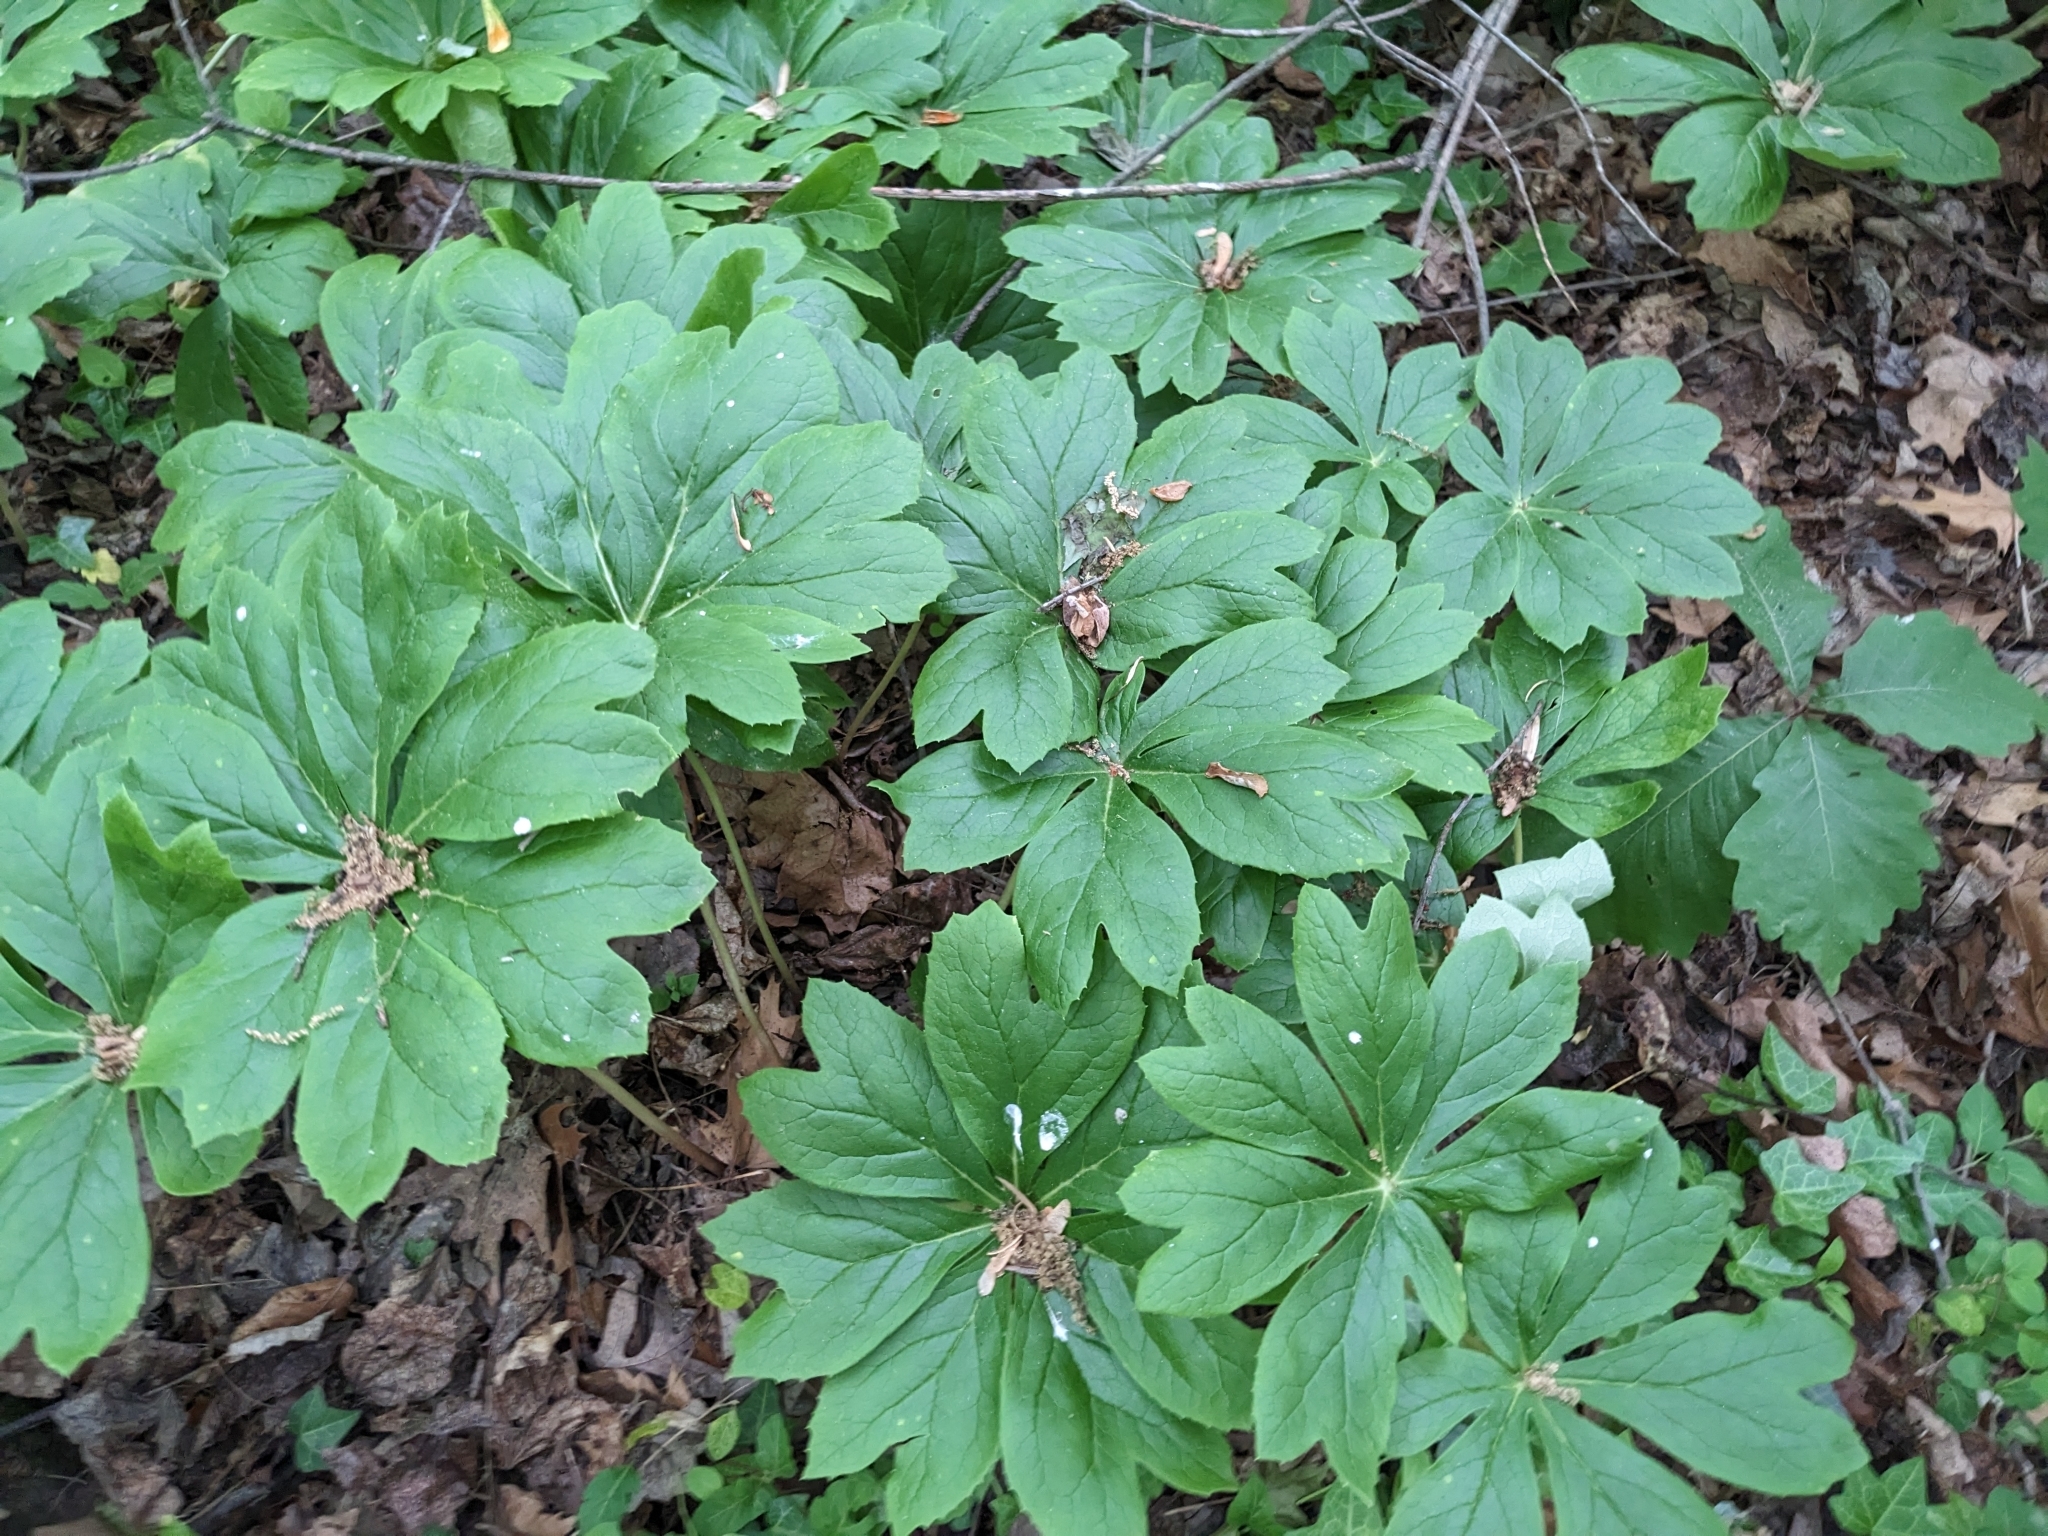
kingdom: Plantae
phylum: Tracheophyta
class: Magnoliopsida
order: Ranunculales
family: Berberidaceae
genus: Podophyllum
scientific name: Podophyllum peltatum
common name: Wild mandrake
